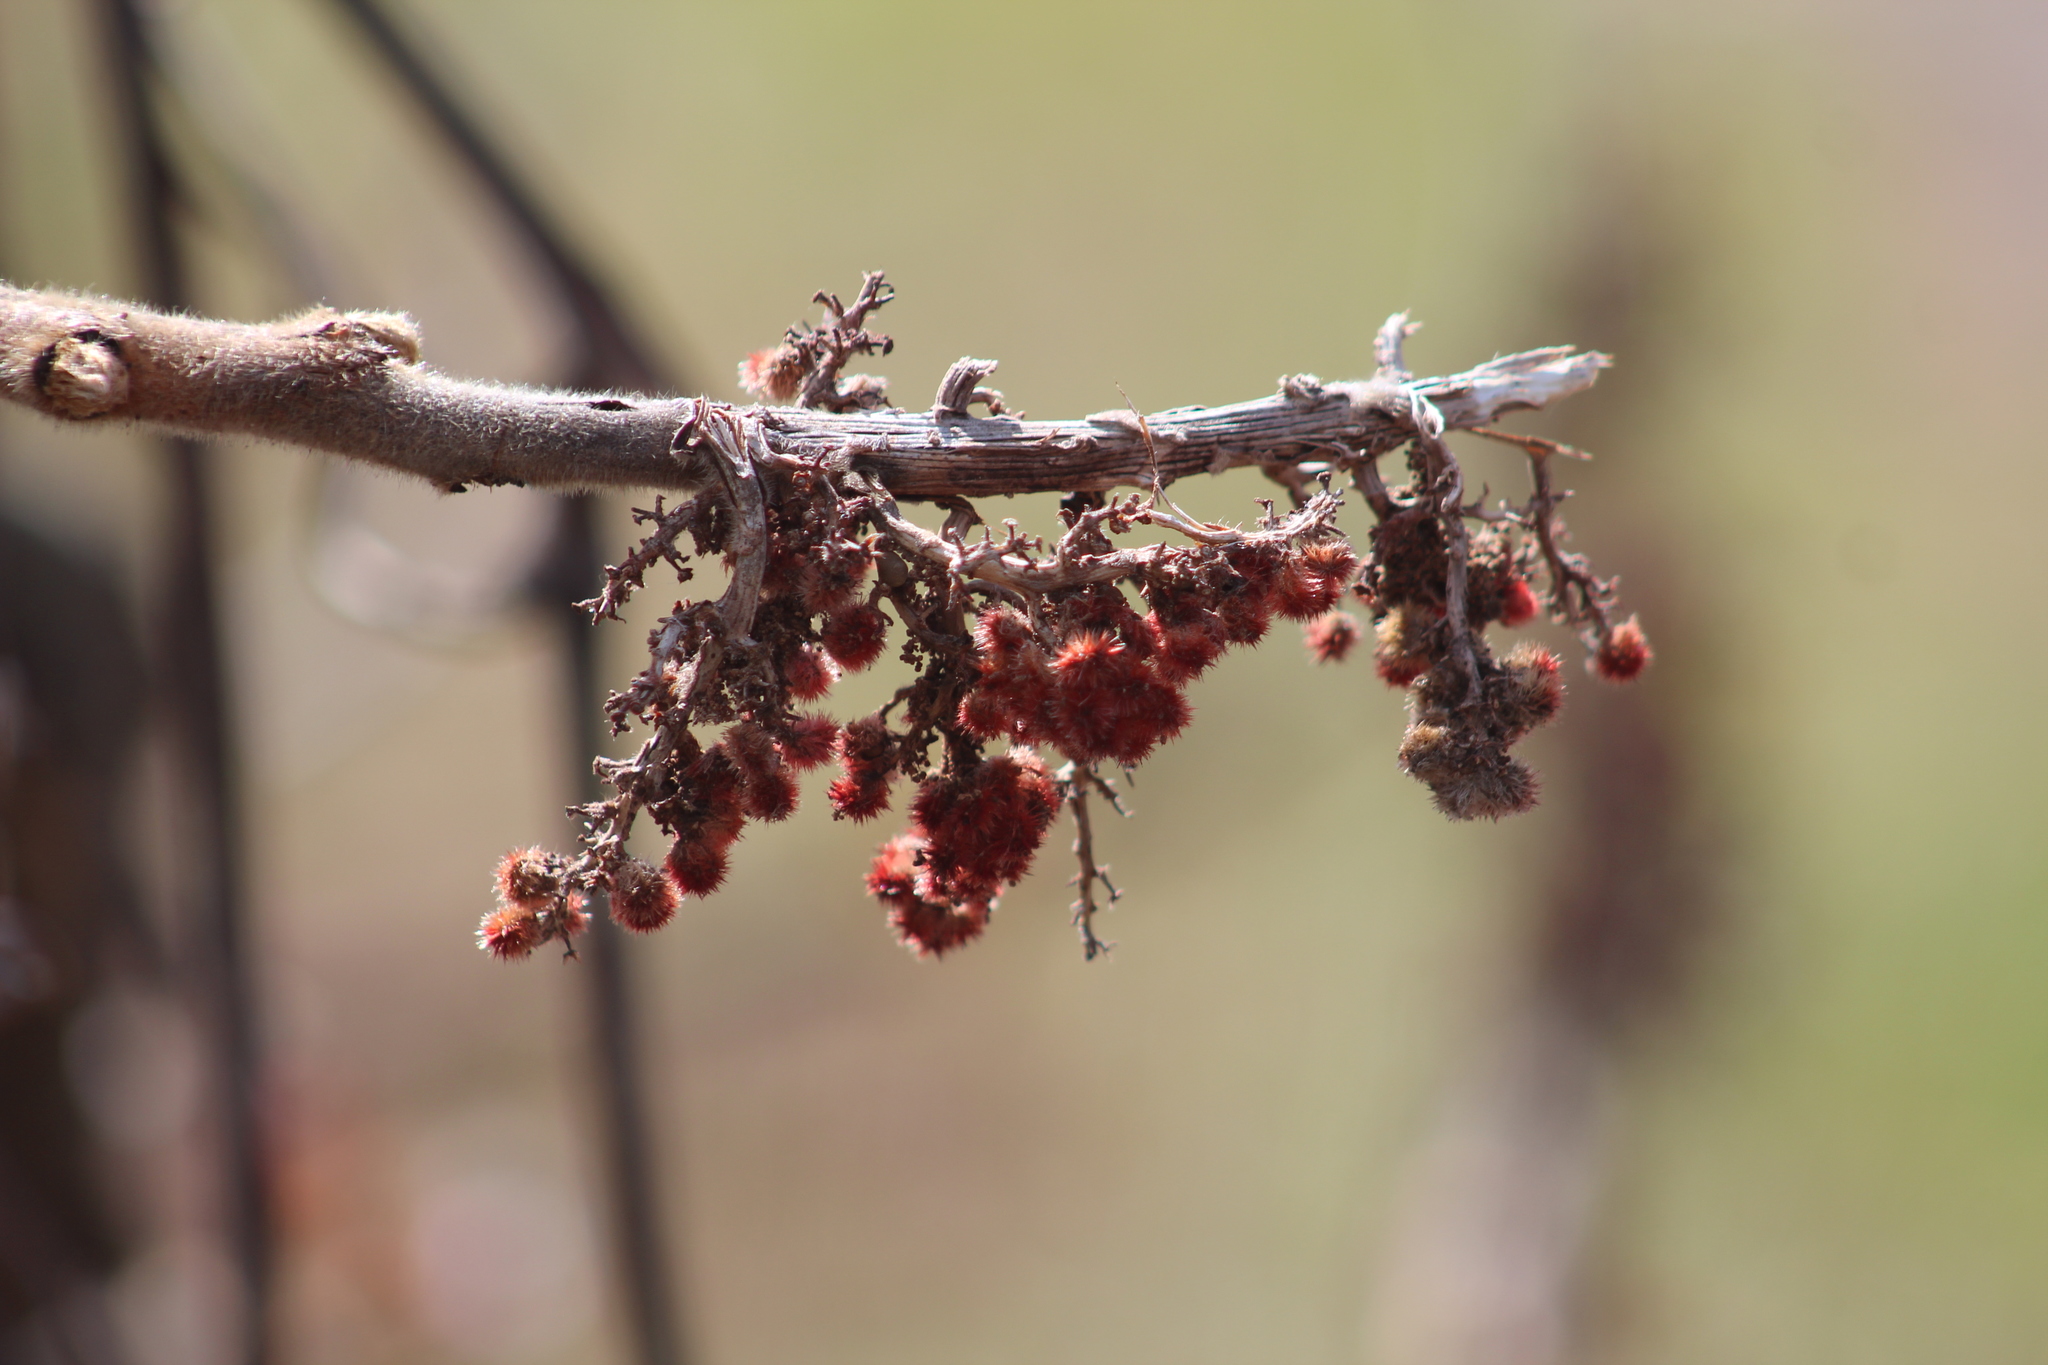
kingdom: Plantae
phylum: Tracheophyta
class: Magnoliopsida
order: Sapindales
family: Anacardiaceae
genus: Rhus
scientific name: Rhus typhina
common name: Staghorn sumac
